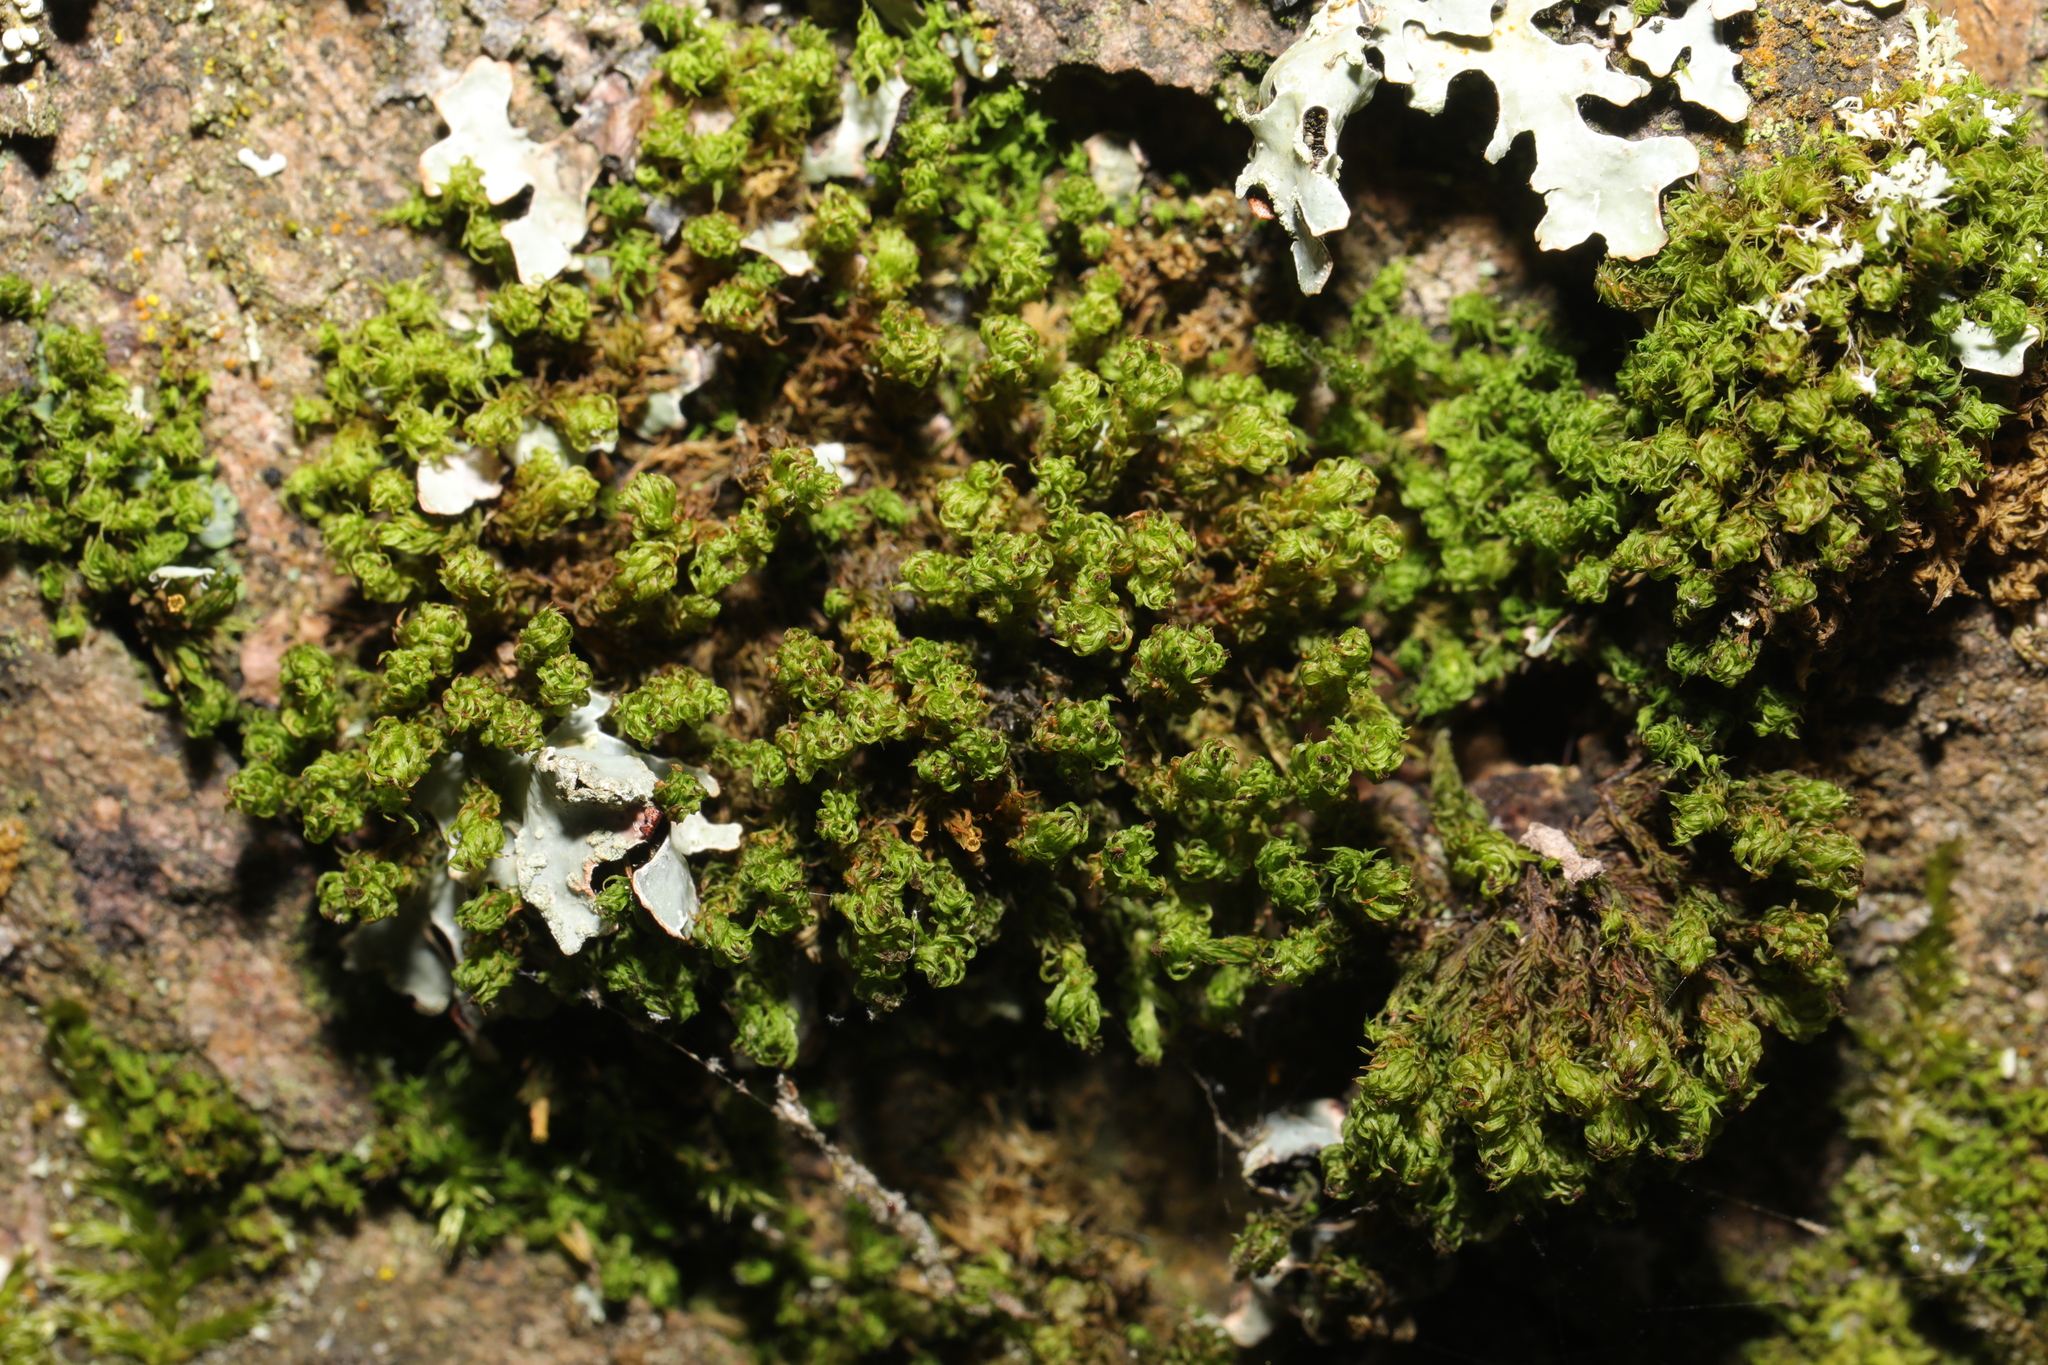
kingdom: Plantae
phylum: Bryophyta
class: Bryopsida
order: Orthotrichales
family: Orthotrichaceae
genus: Plenogemma
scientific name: Plenogemma phyllantha
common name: Frizzled pincushion
